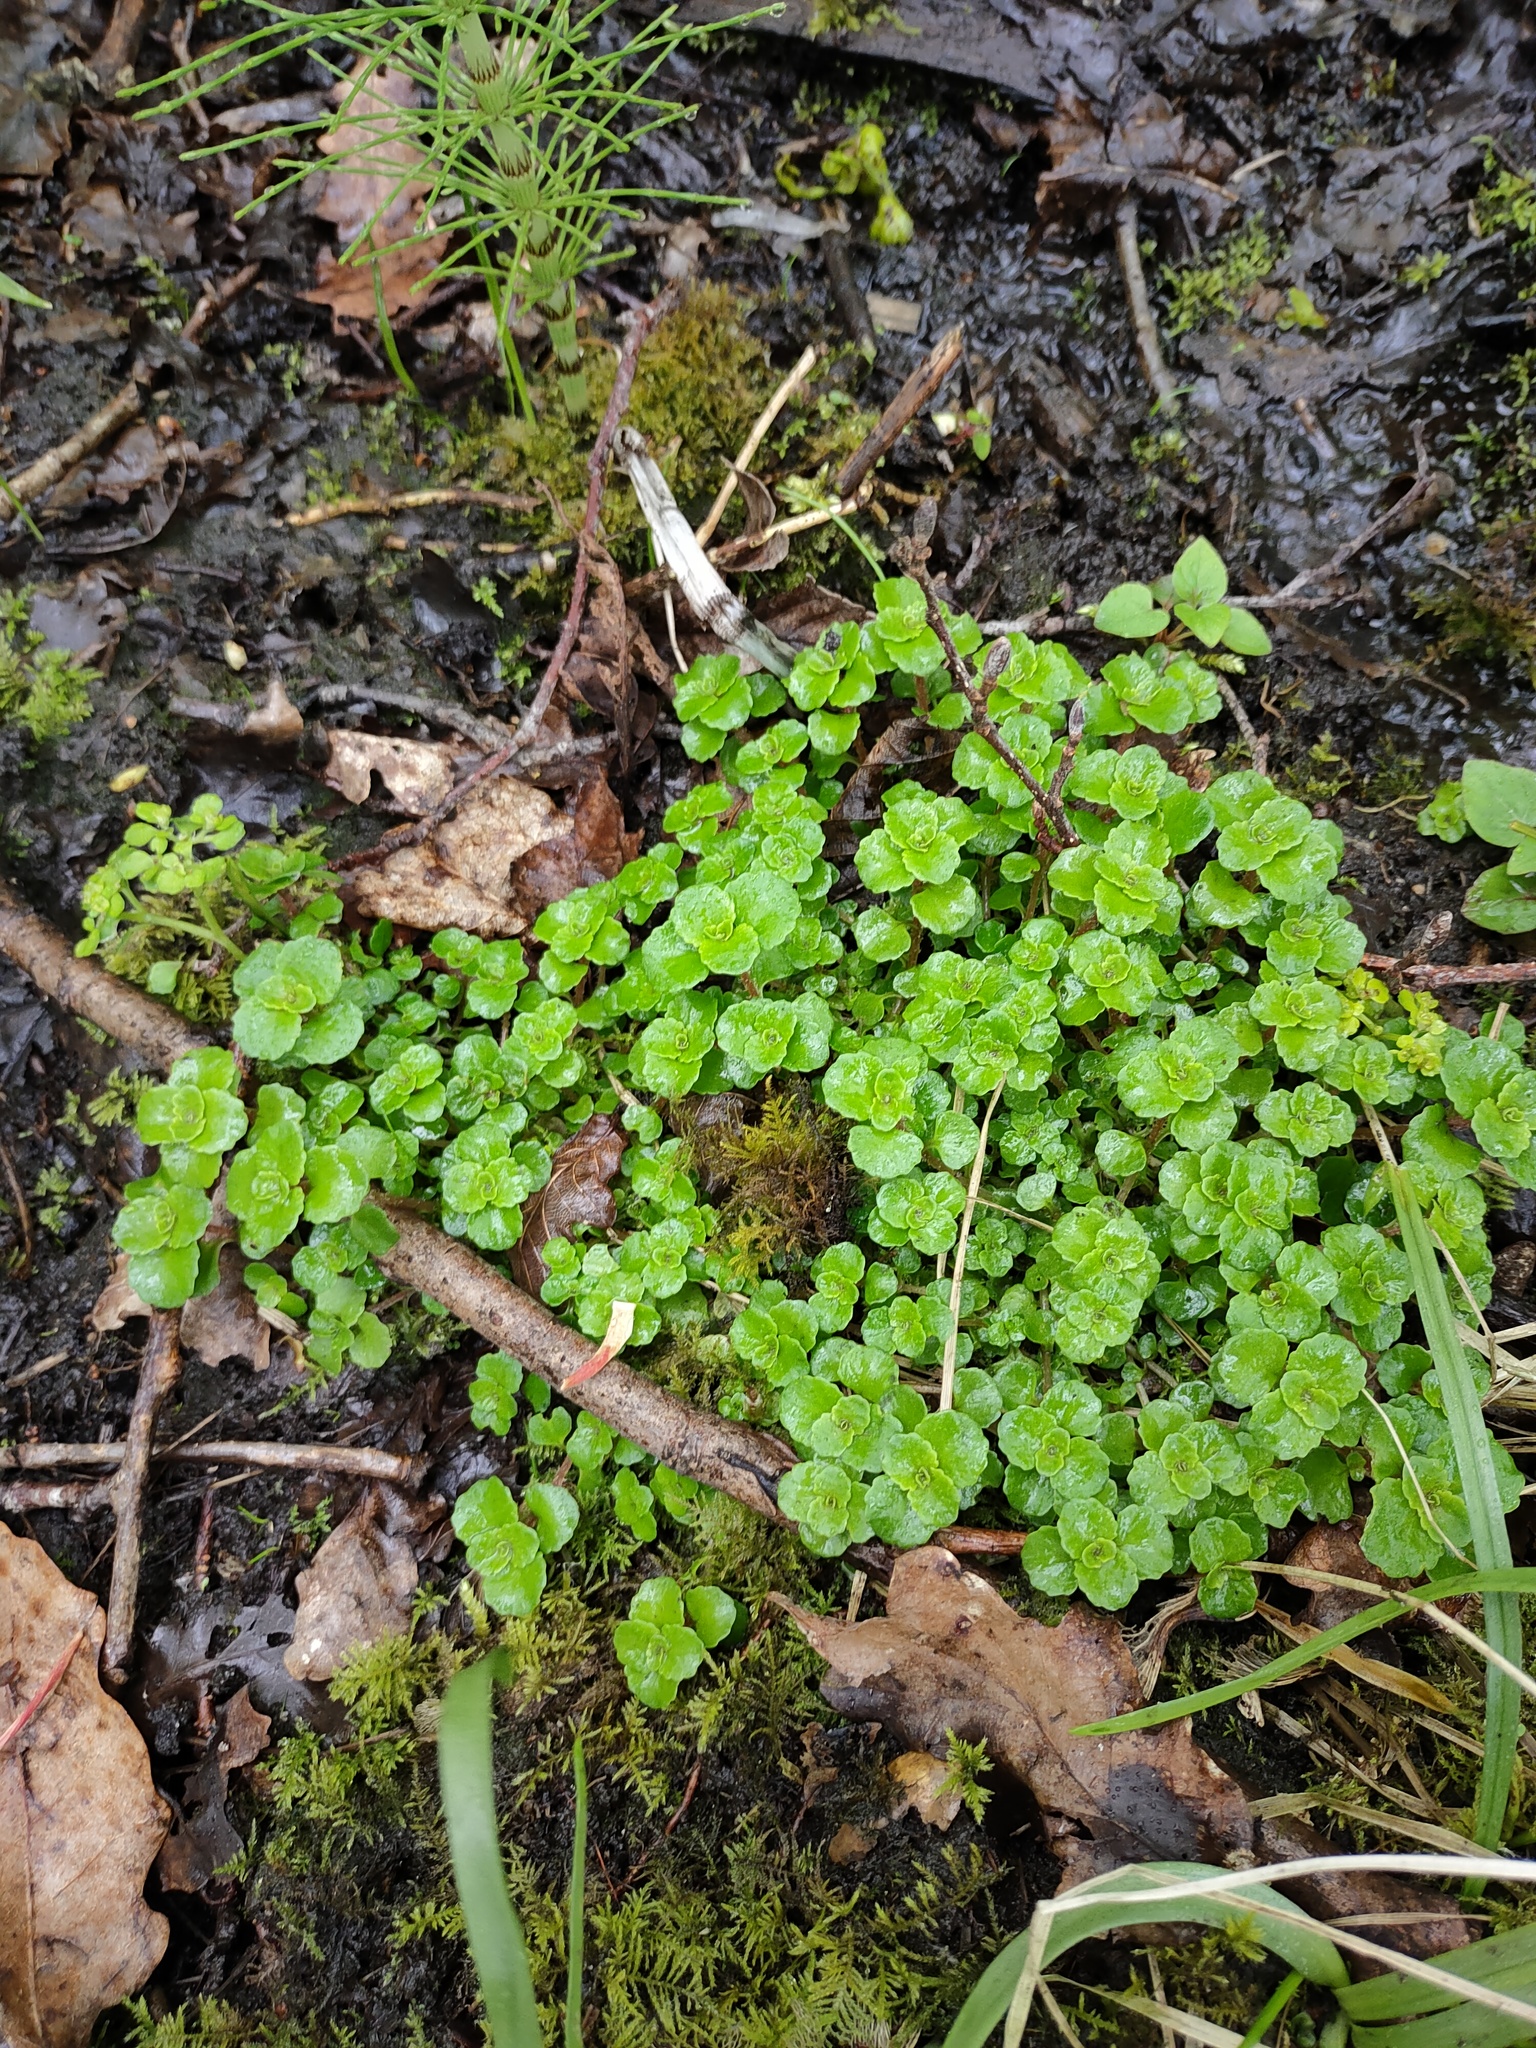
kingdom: Plantae
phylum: Tracheophyta
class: Magnoliopsida
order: Saxifragales
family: Saxifragaceae
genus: Chrysosplenium
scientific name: Chrysosplenium oppositifolium
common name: Opposite-leaved golden-saxifrage
